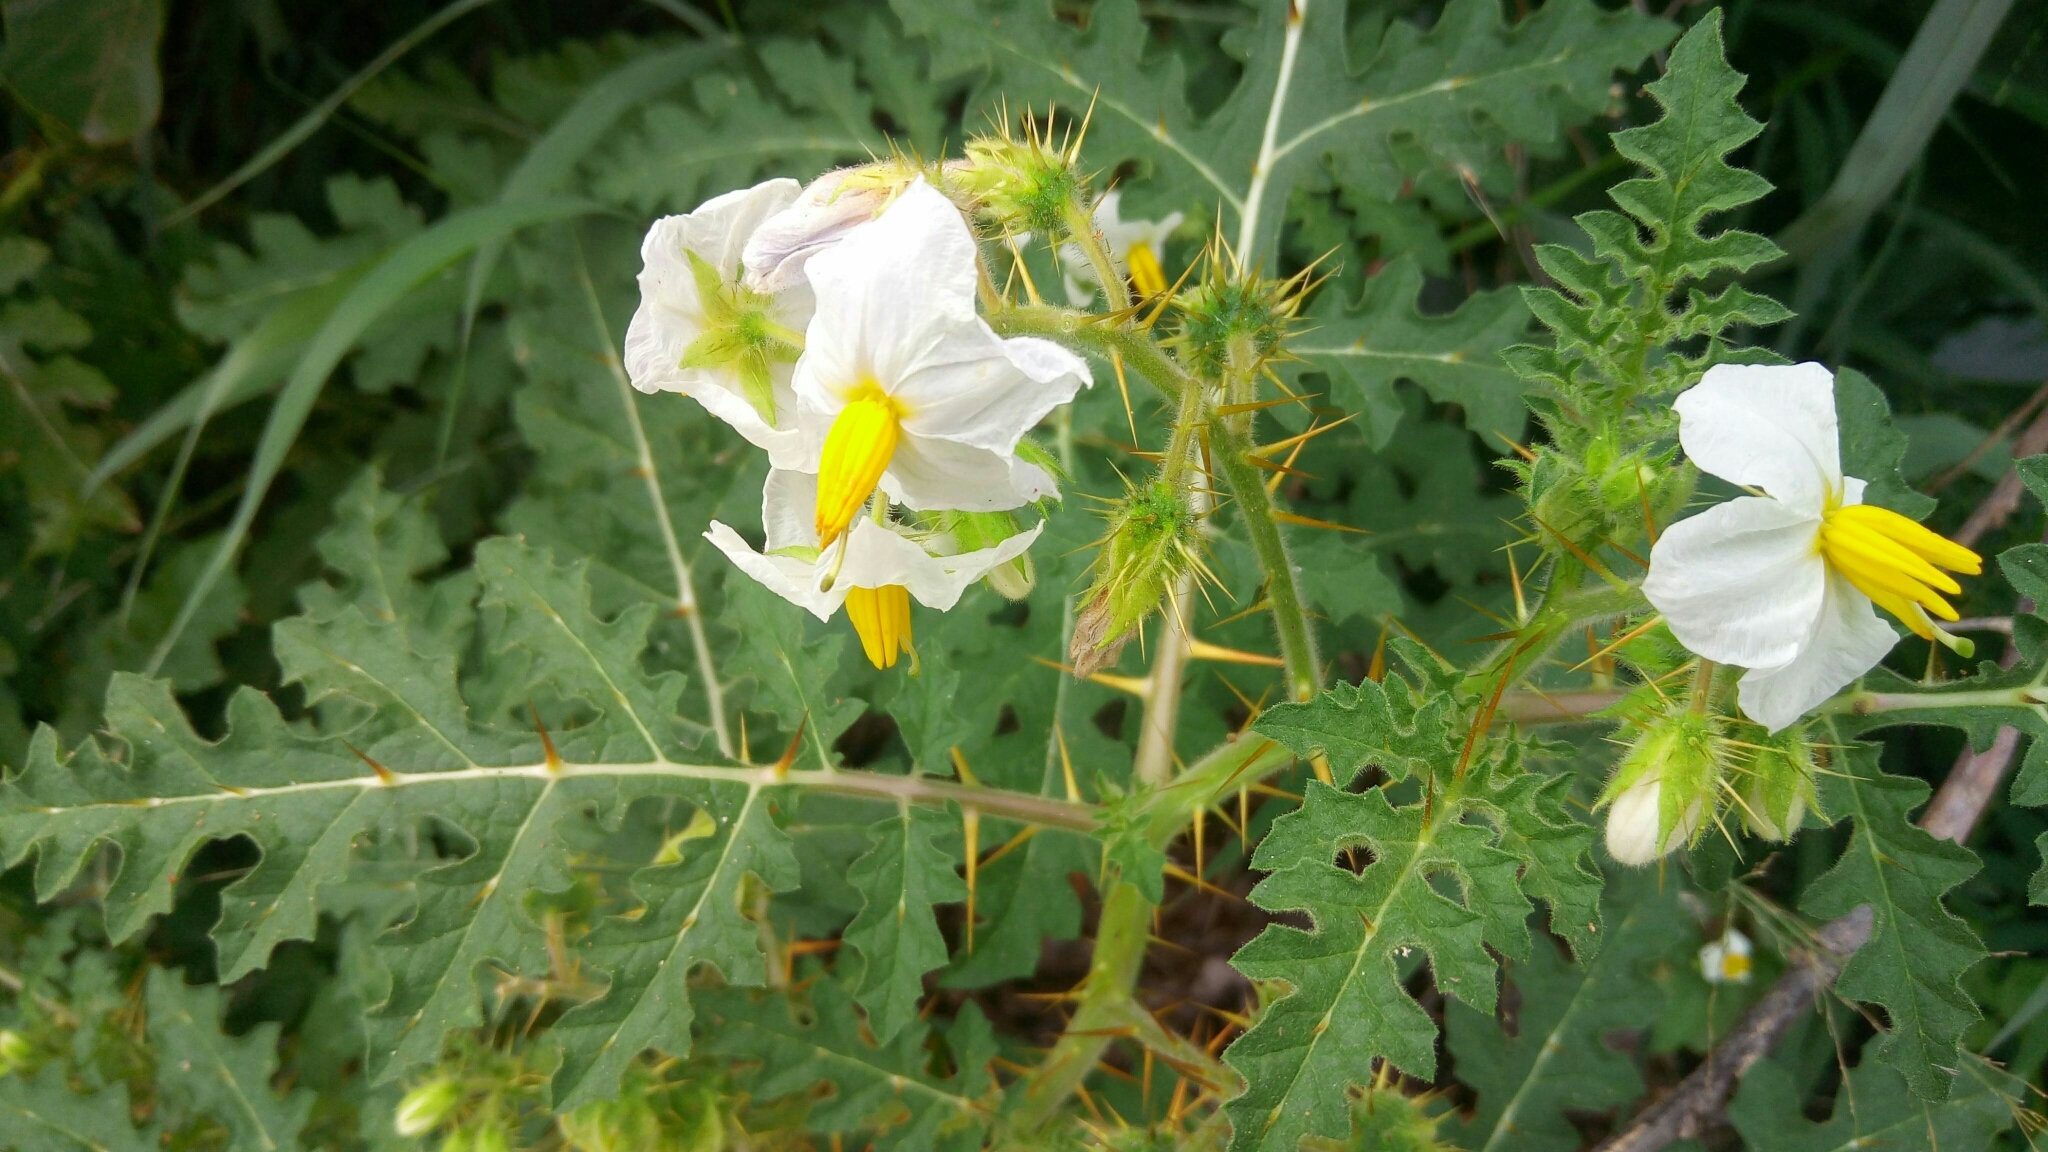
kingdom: Plantae
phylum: Tracheophyta
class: Magnoliopsida
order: Solanales
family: Solanaceae
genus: Solanum
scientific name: Solanum sisymbriifolium
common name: Red buffalo-bur
